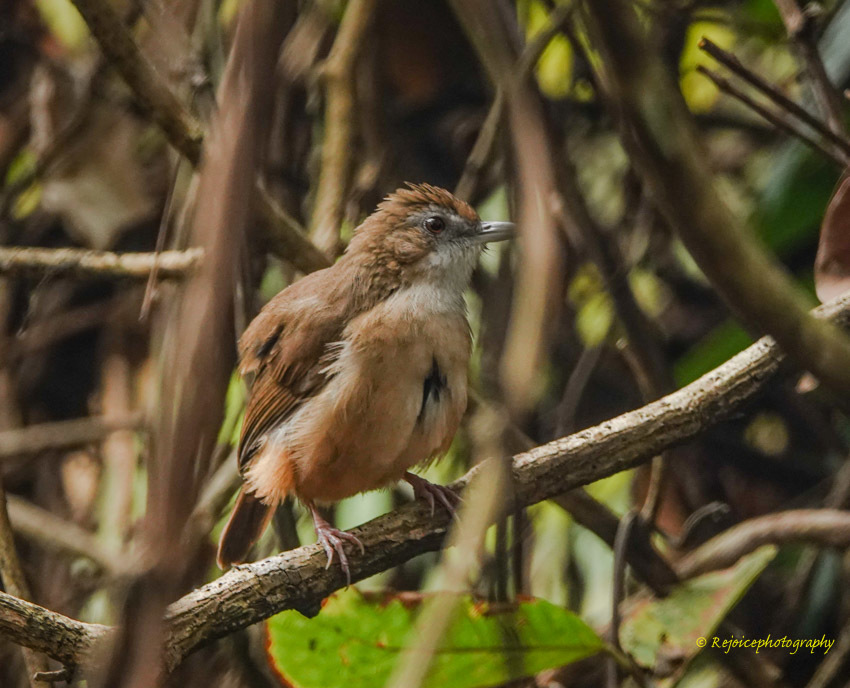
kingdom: Animalia
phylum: Chordata
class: Aves
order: Passeriformes
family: Pellorneidae
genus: Malacocincla
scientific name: Malacocincla abbotti
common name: Abbott's babbler
